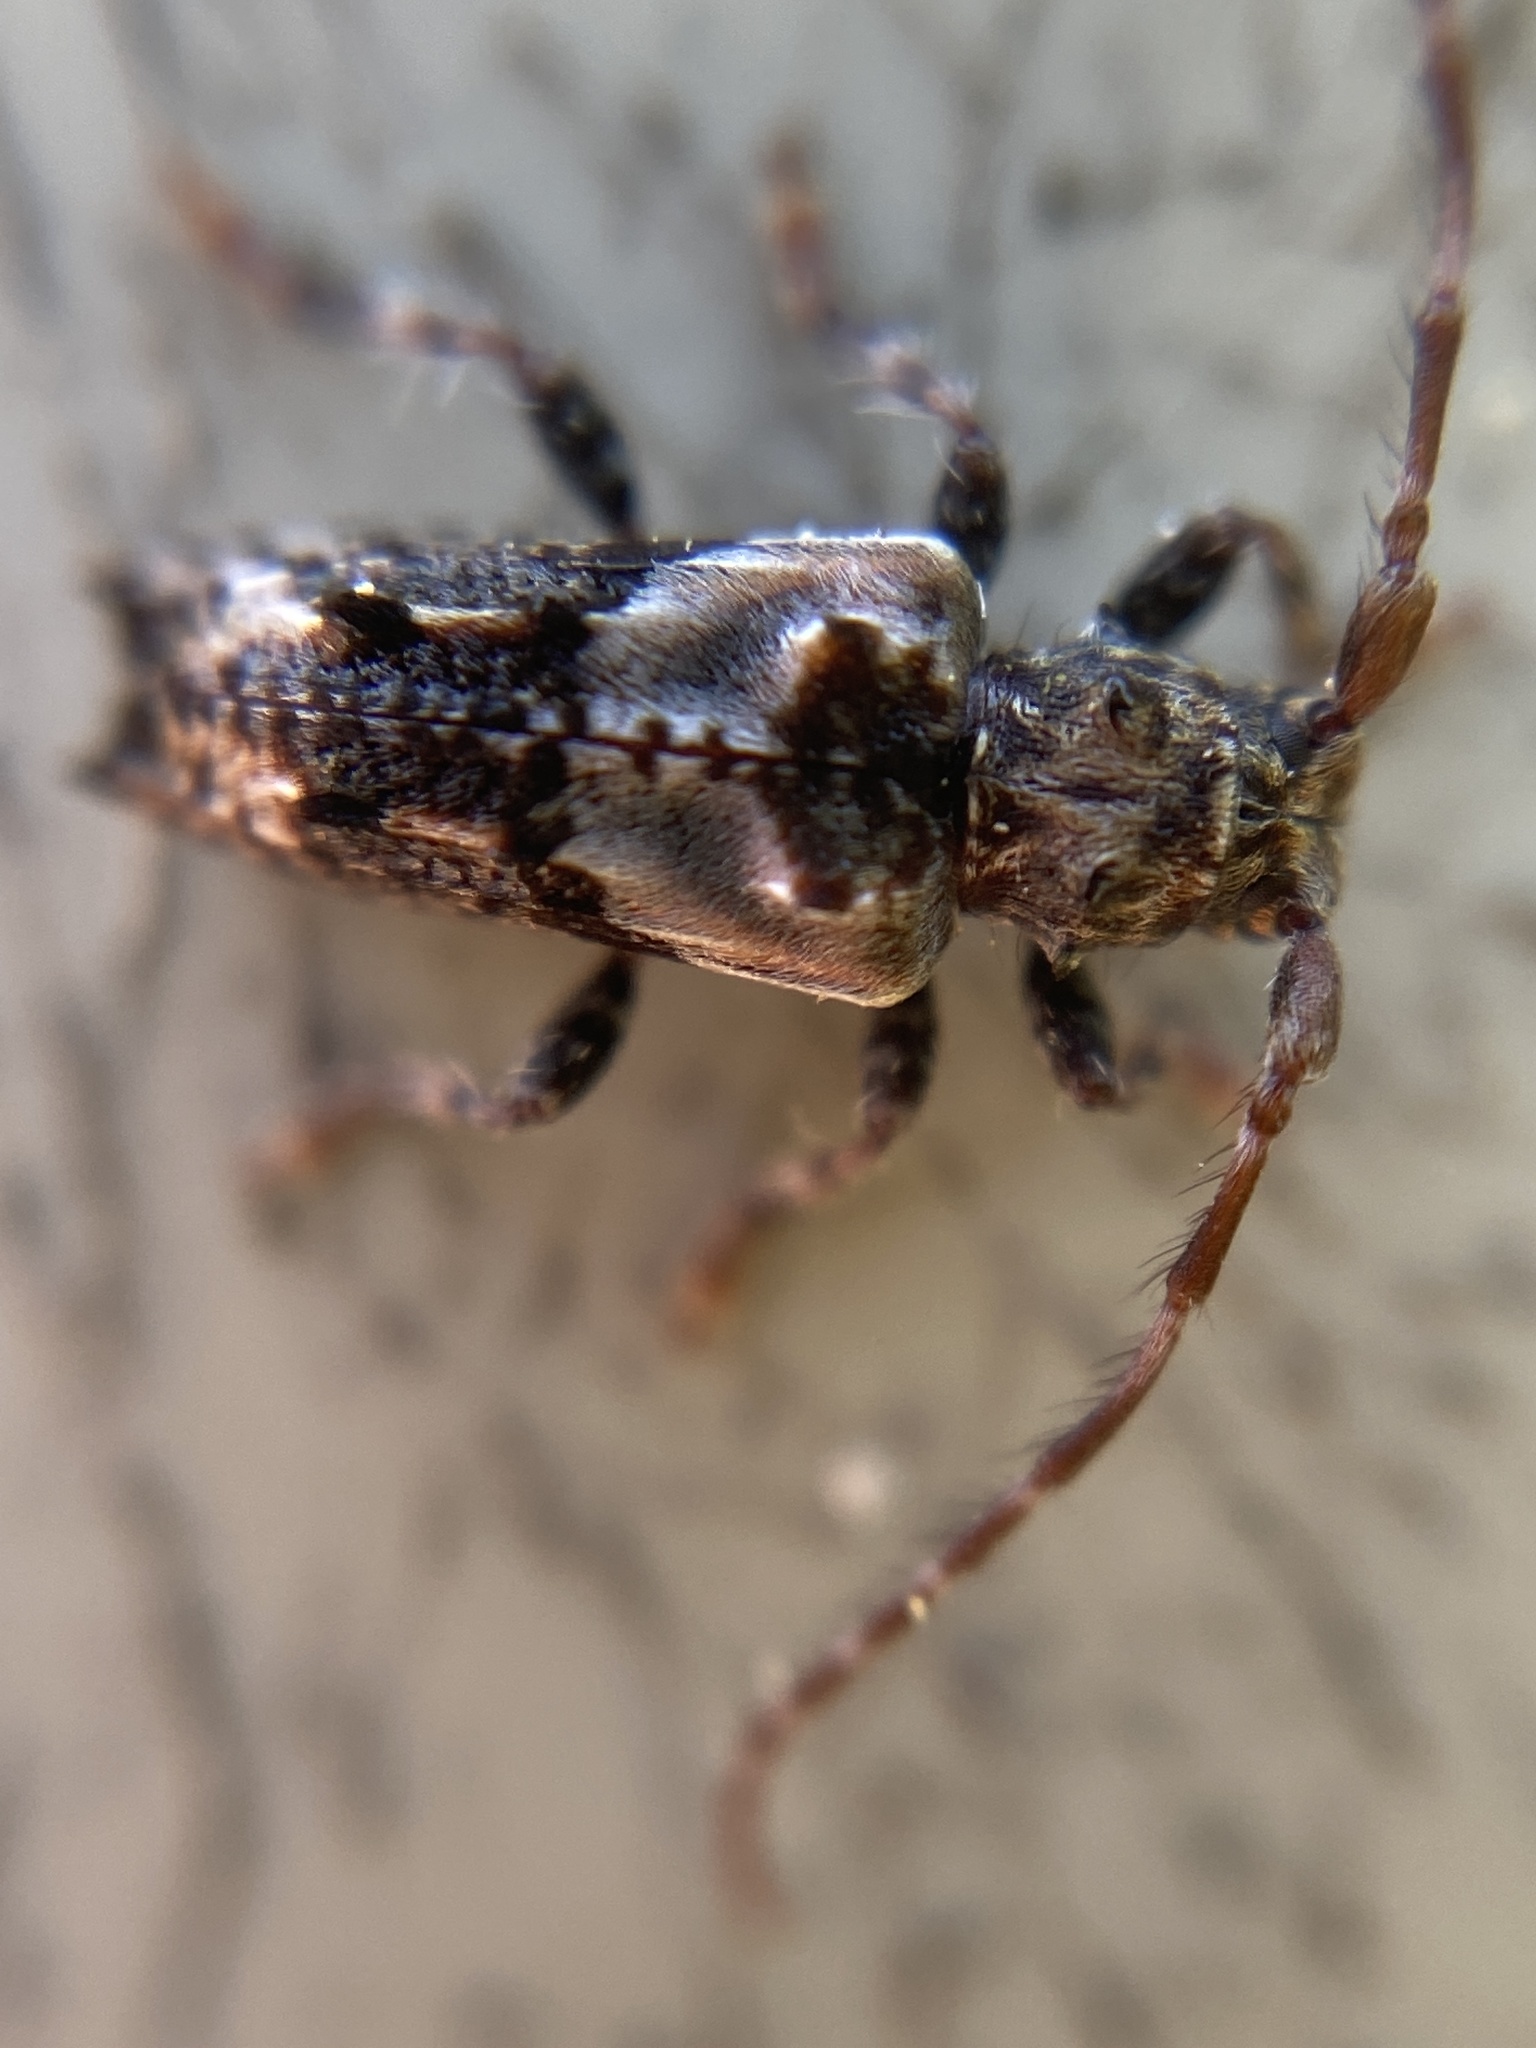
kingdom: Animalia
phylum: Arthropoda
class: Insecta
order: Coleoptera
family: Cerambycidae
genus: Pogonocherus
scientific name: Pogonocherus hispidus
